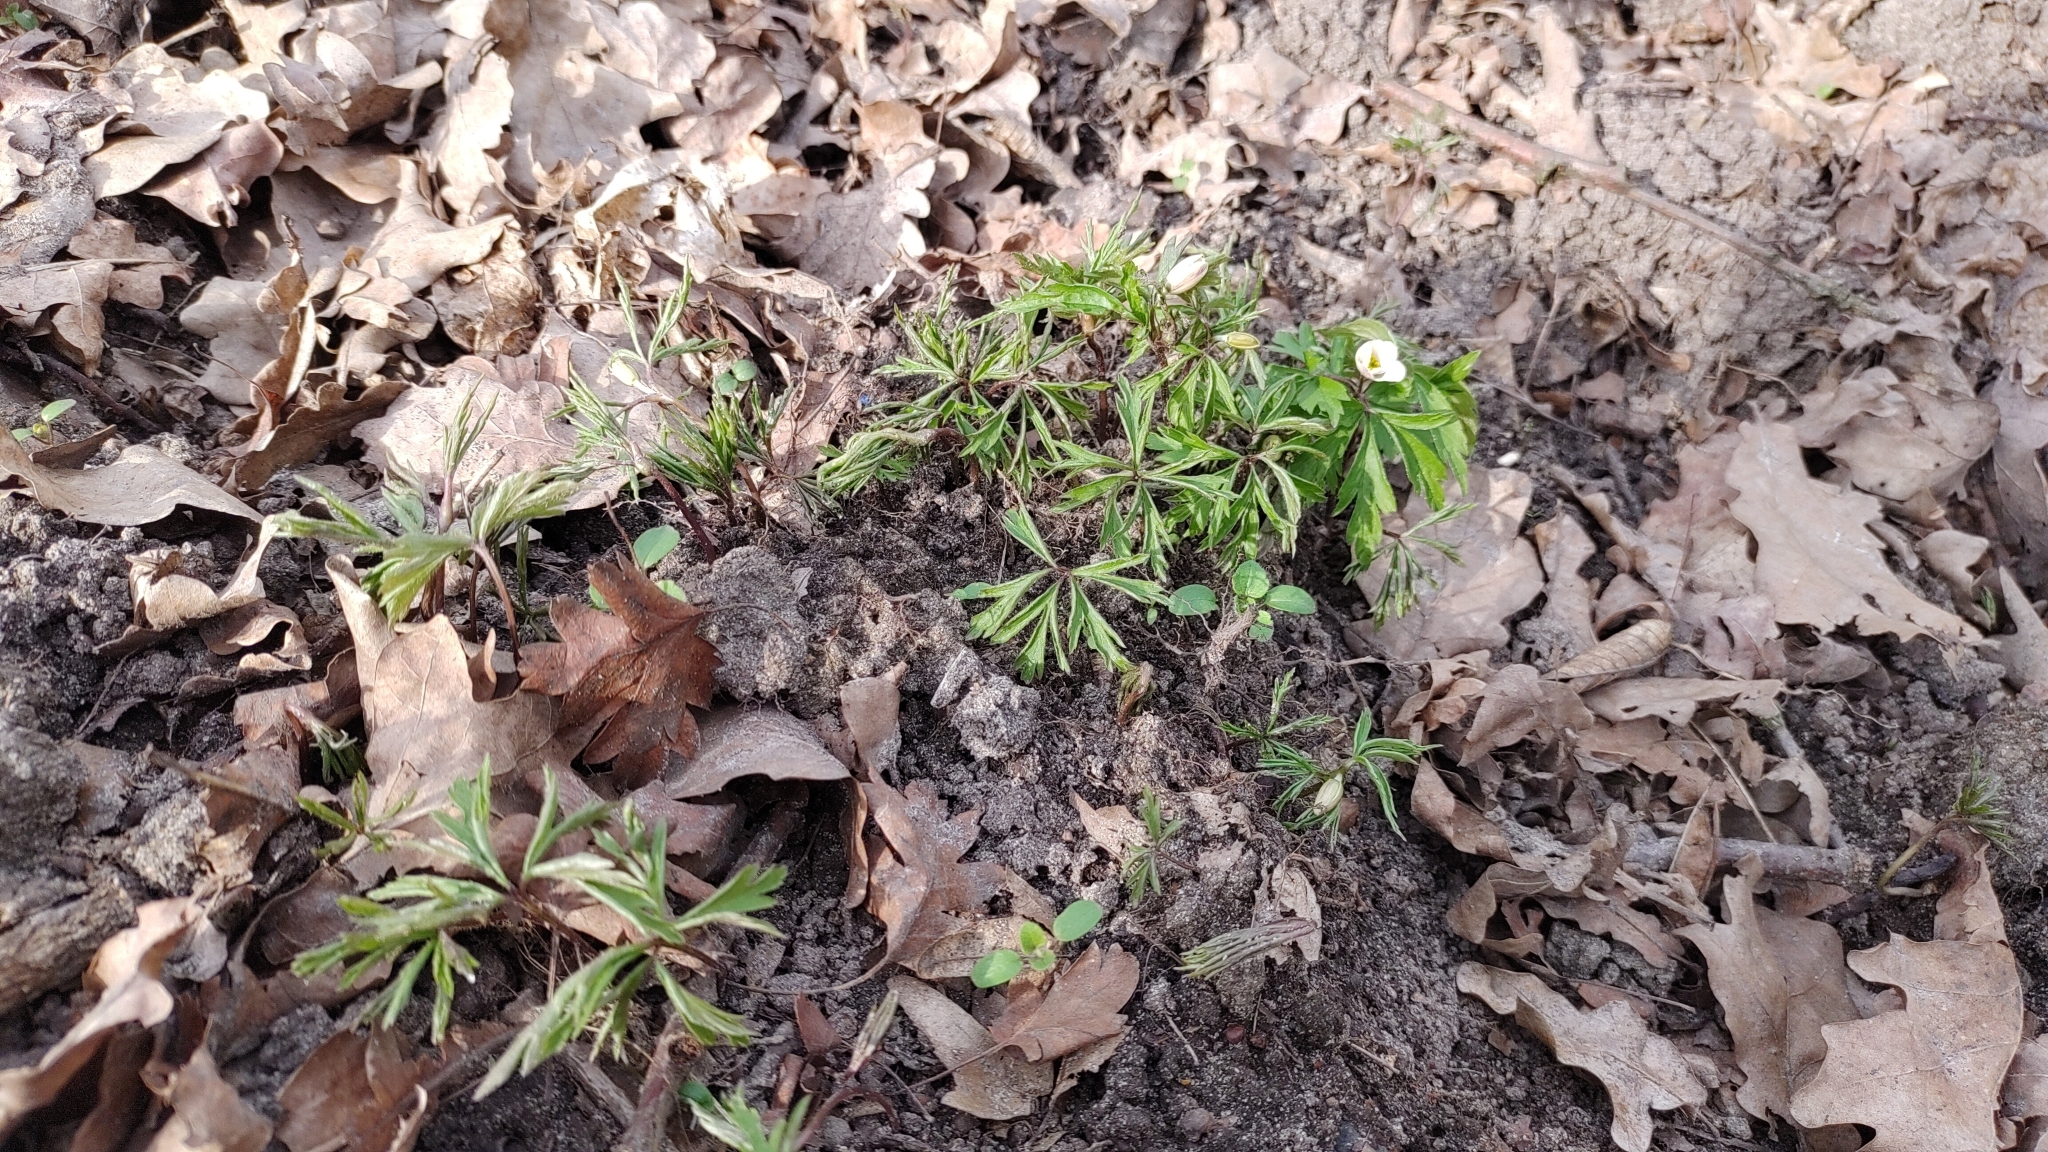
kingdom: Plantae
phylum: Tracheophyta
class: Magnoliopsida
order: Ranunculales
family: Ranunculaceae
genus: Anemone
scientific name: Anemone nemorosa
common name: Wood anemone
